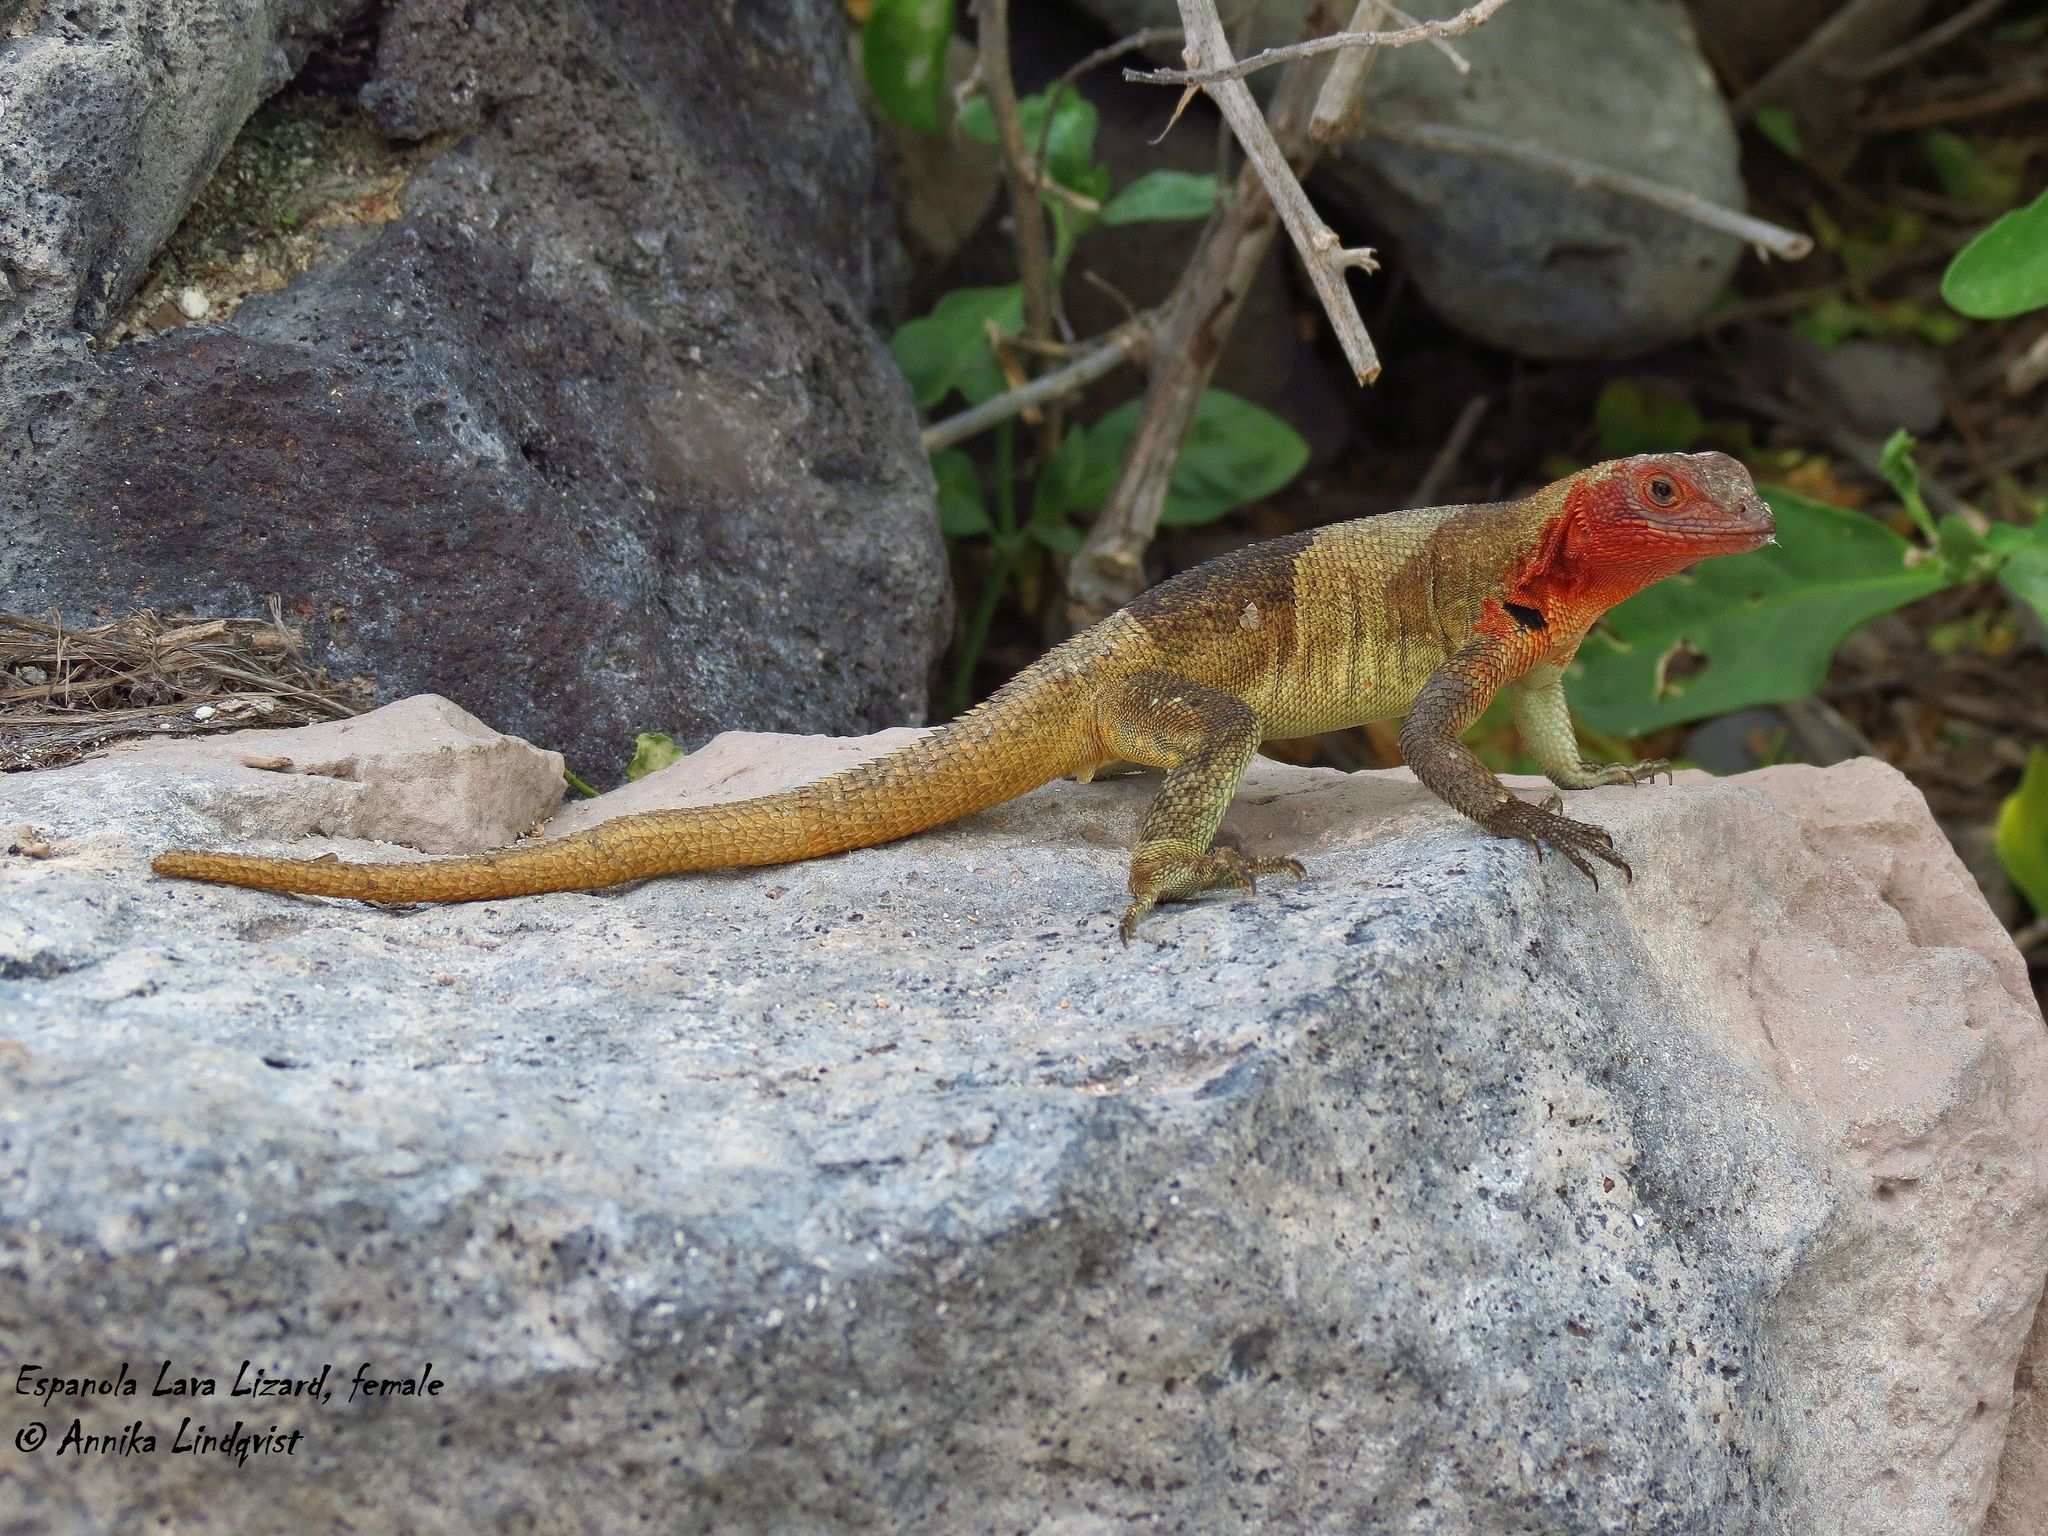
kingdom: Animalia
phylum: Chordata
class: Squamata
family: Tropiduridae
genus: Microlophus
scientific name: Microlophus delanonis
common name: Hood lava lizard
